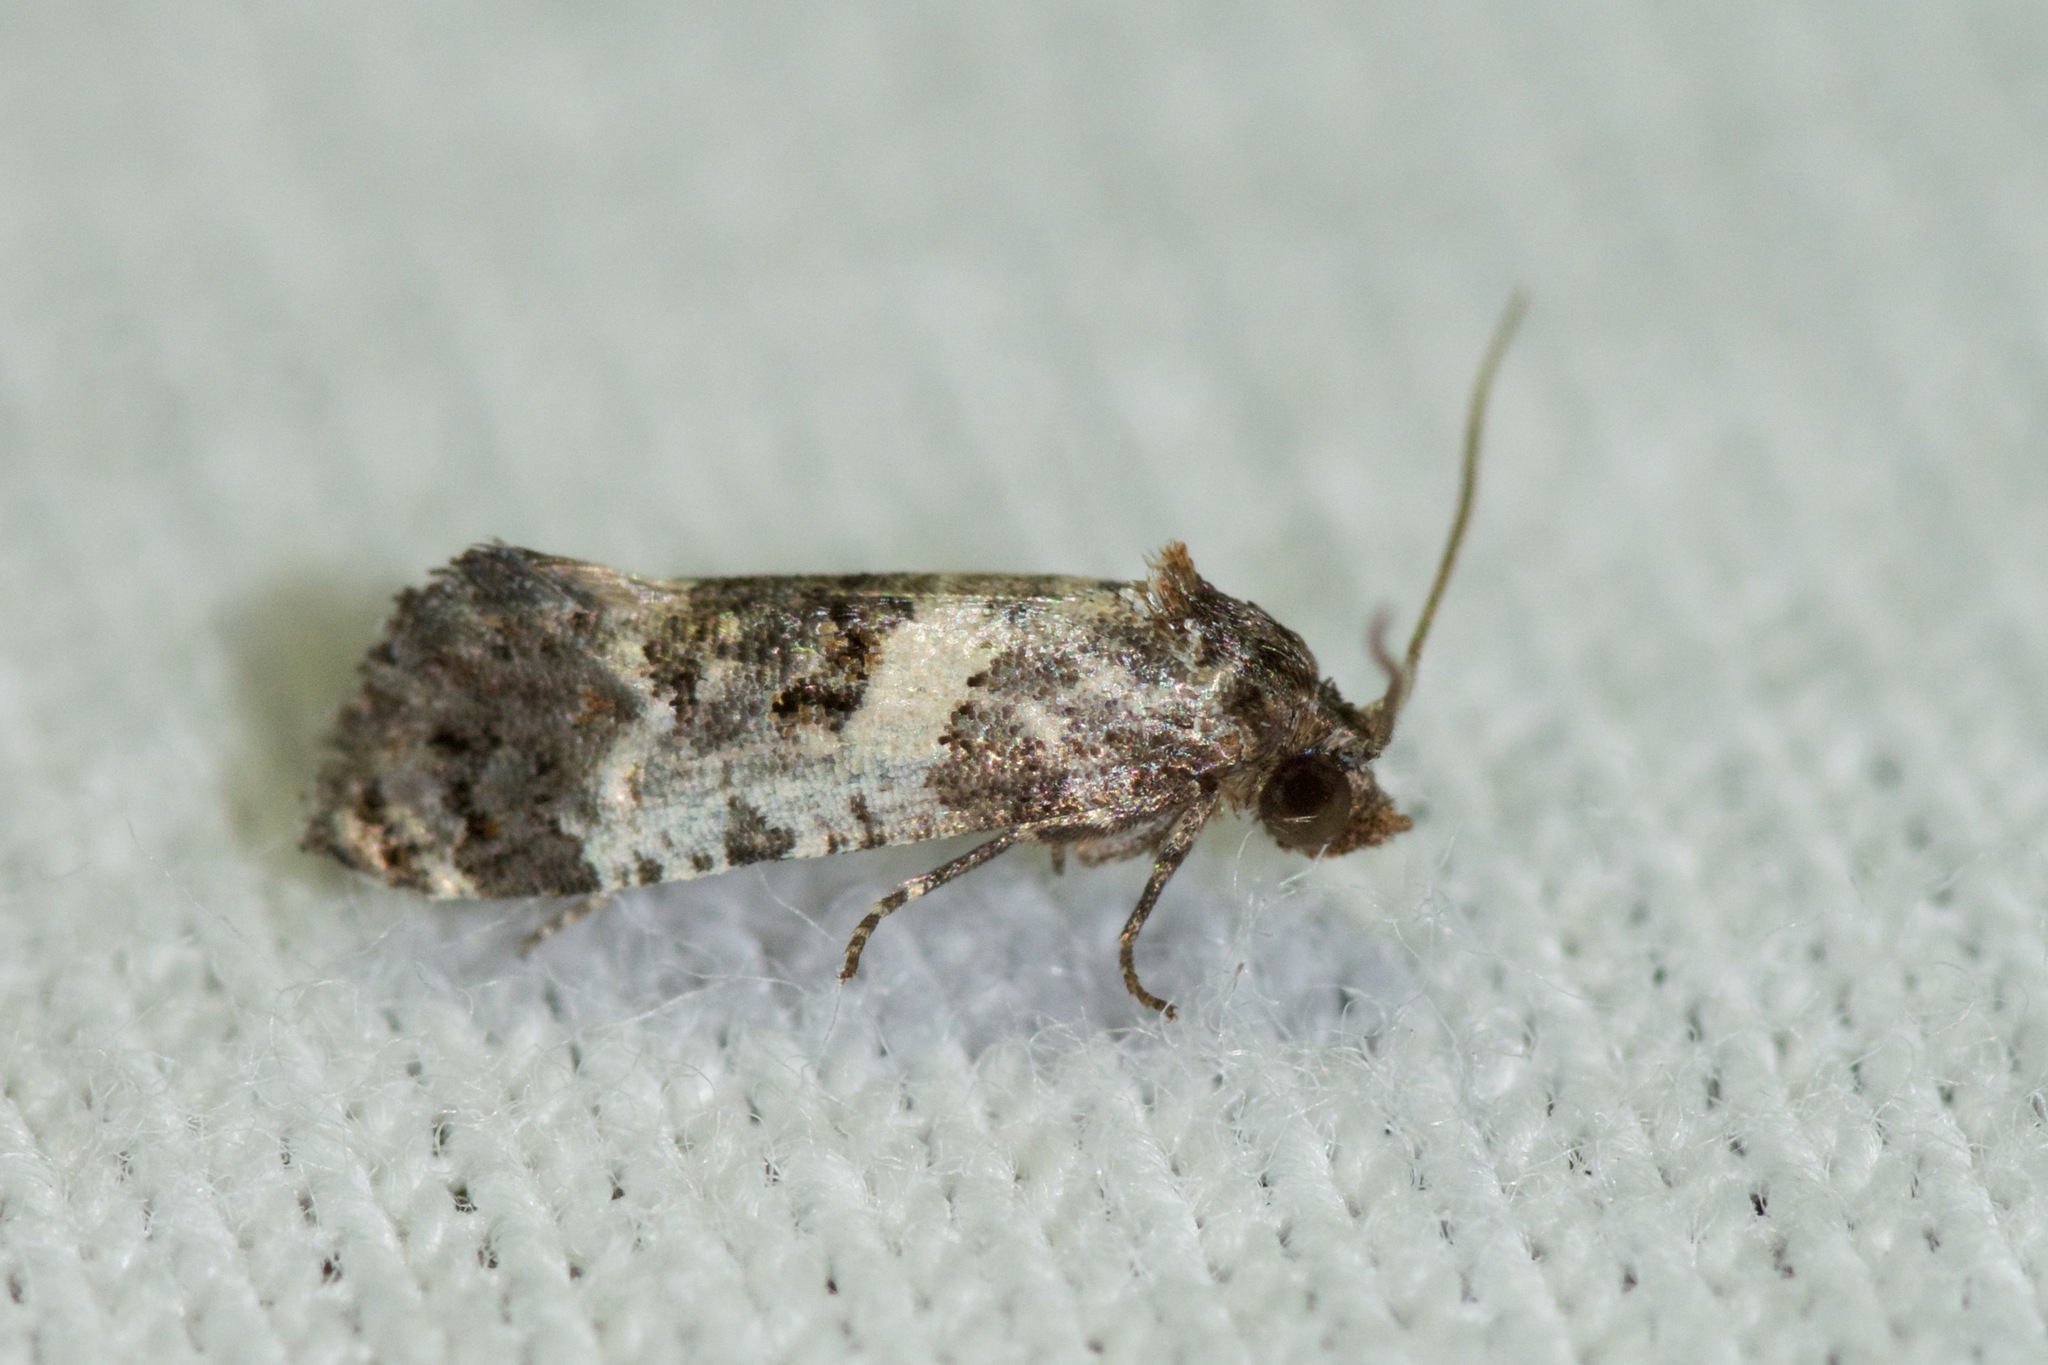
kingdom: Animalia
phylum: Arthropoda
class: Insecta
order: Lepidoptera
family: Tortricidae
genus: Rudenia
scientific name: Rudenia leguminana
